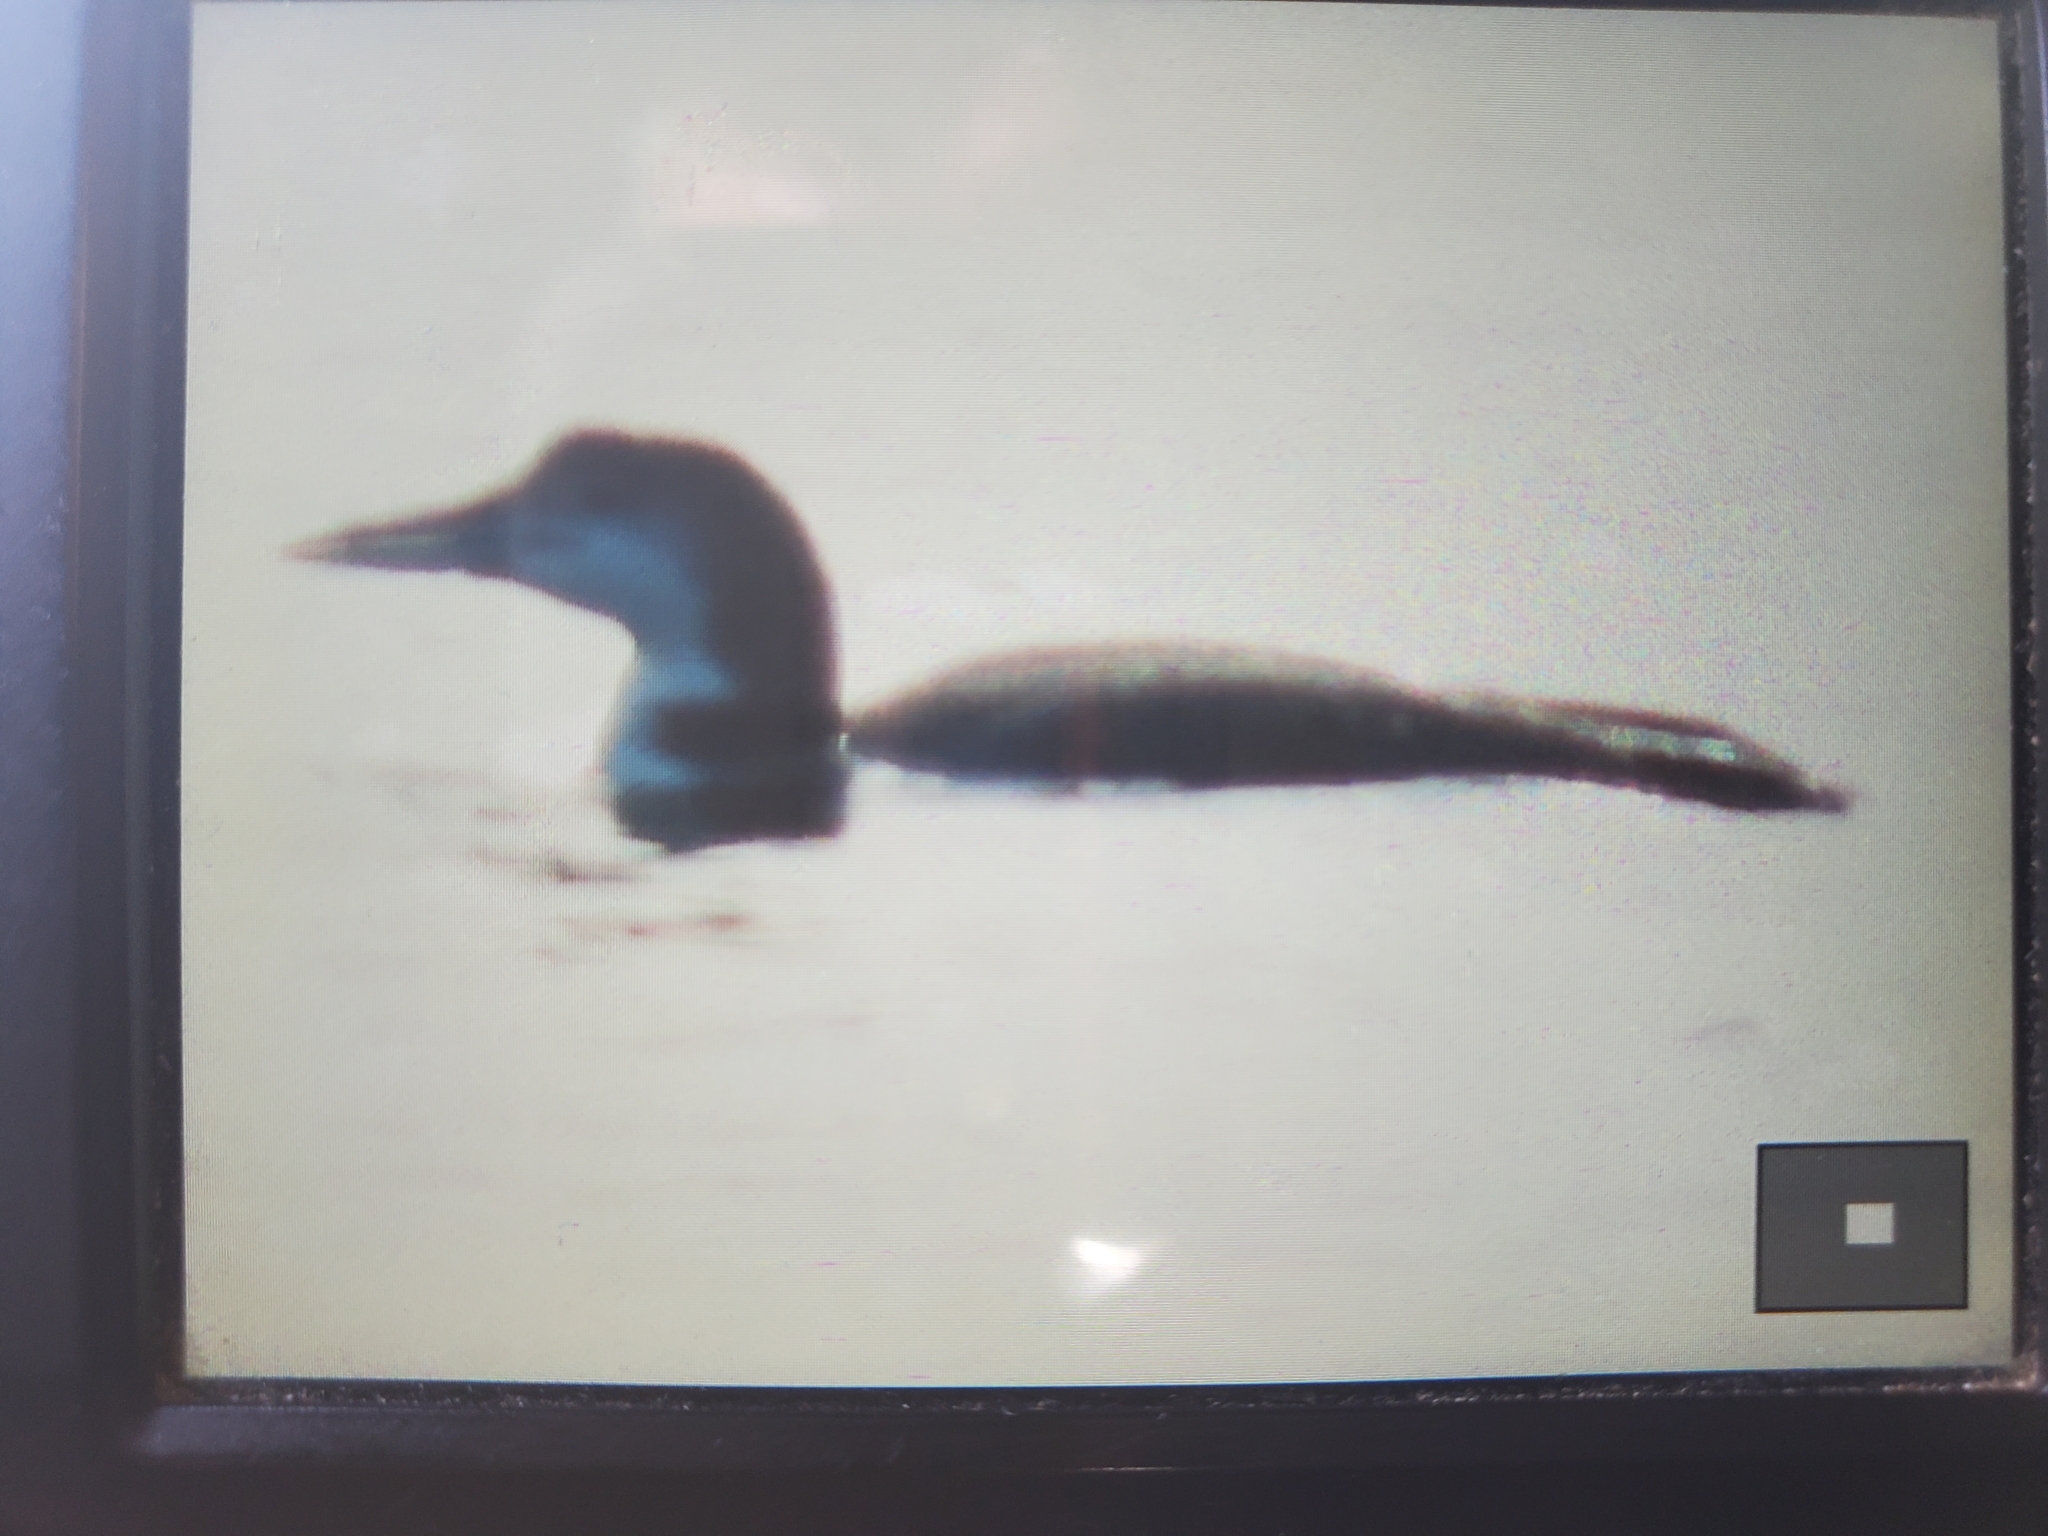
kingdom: Animalia
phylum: Chordata
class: Aves
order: Gaviiformes
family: Gaviidae
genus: Gavia
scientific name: Gavia immer
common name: Common loon
